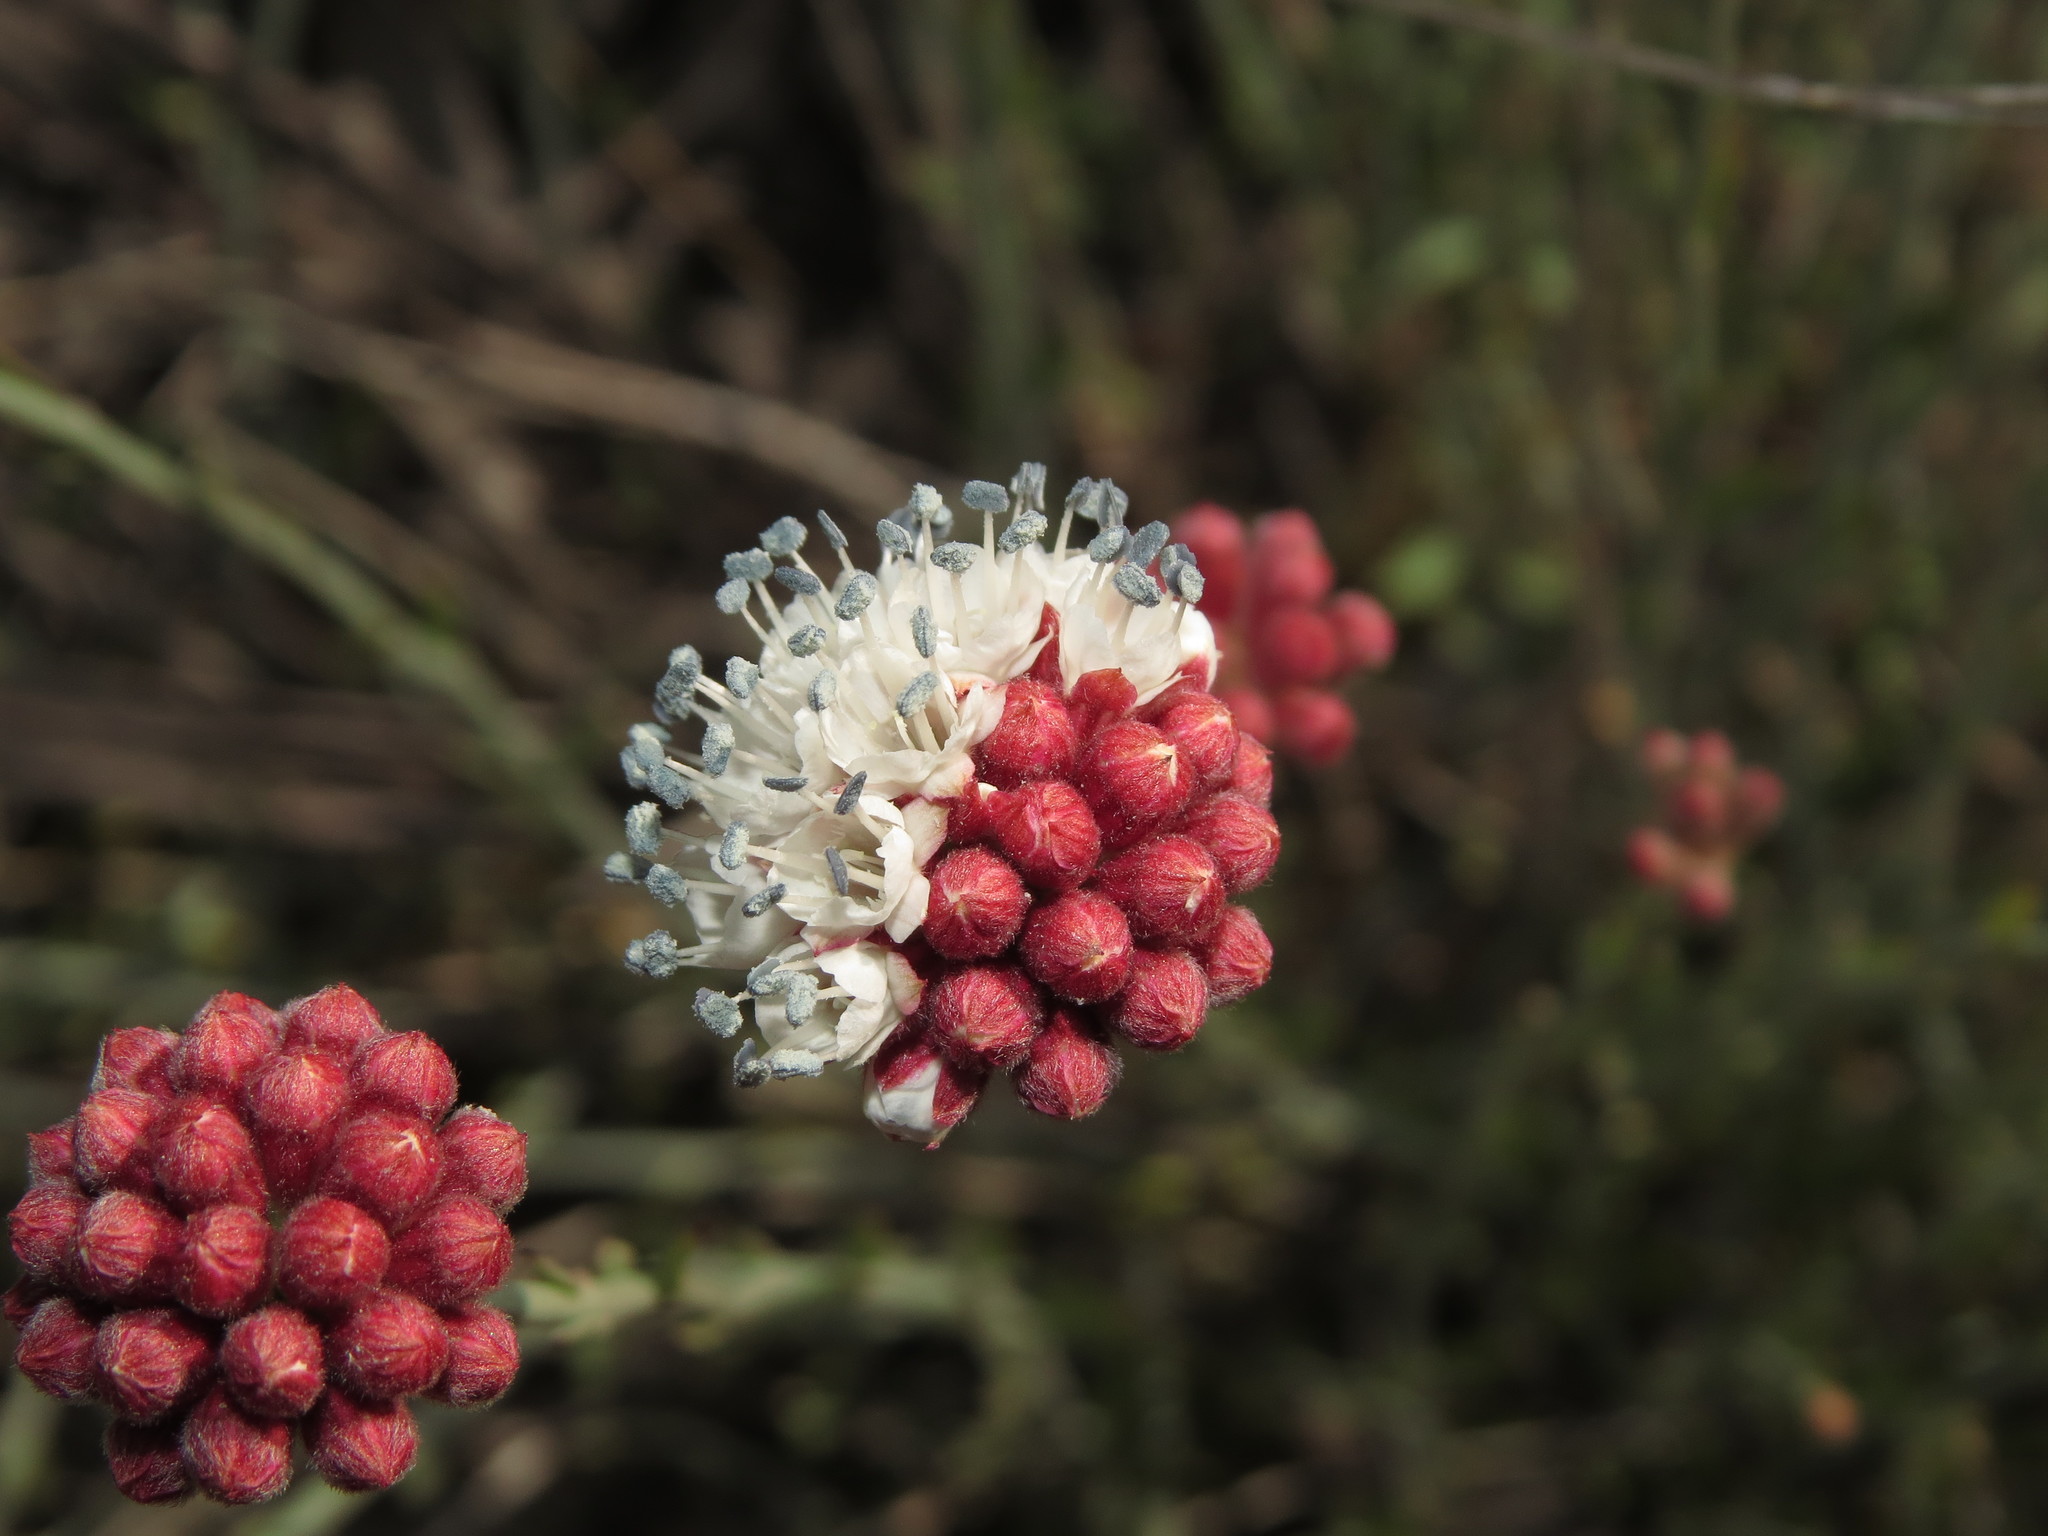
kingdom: Plantae
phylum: Tracheophyta
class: Magnoliopsida
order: Malpighiales
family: Malesherbiaceae
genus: Malesherbia
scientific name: Malesherbia fasciculata
